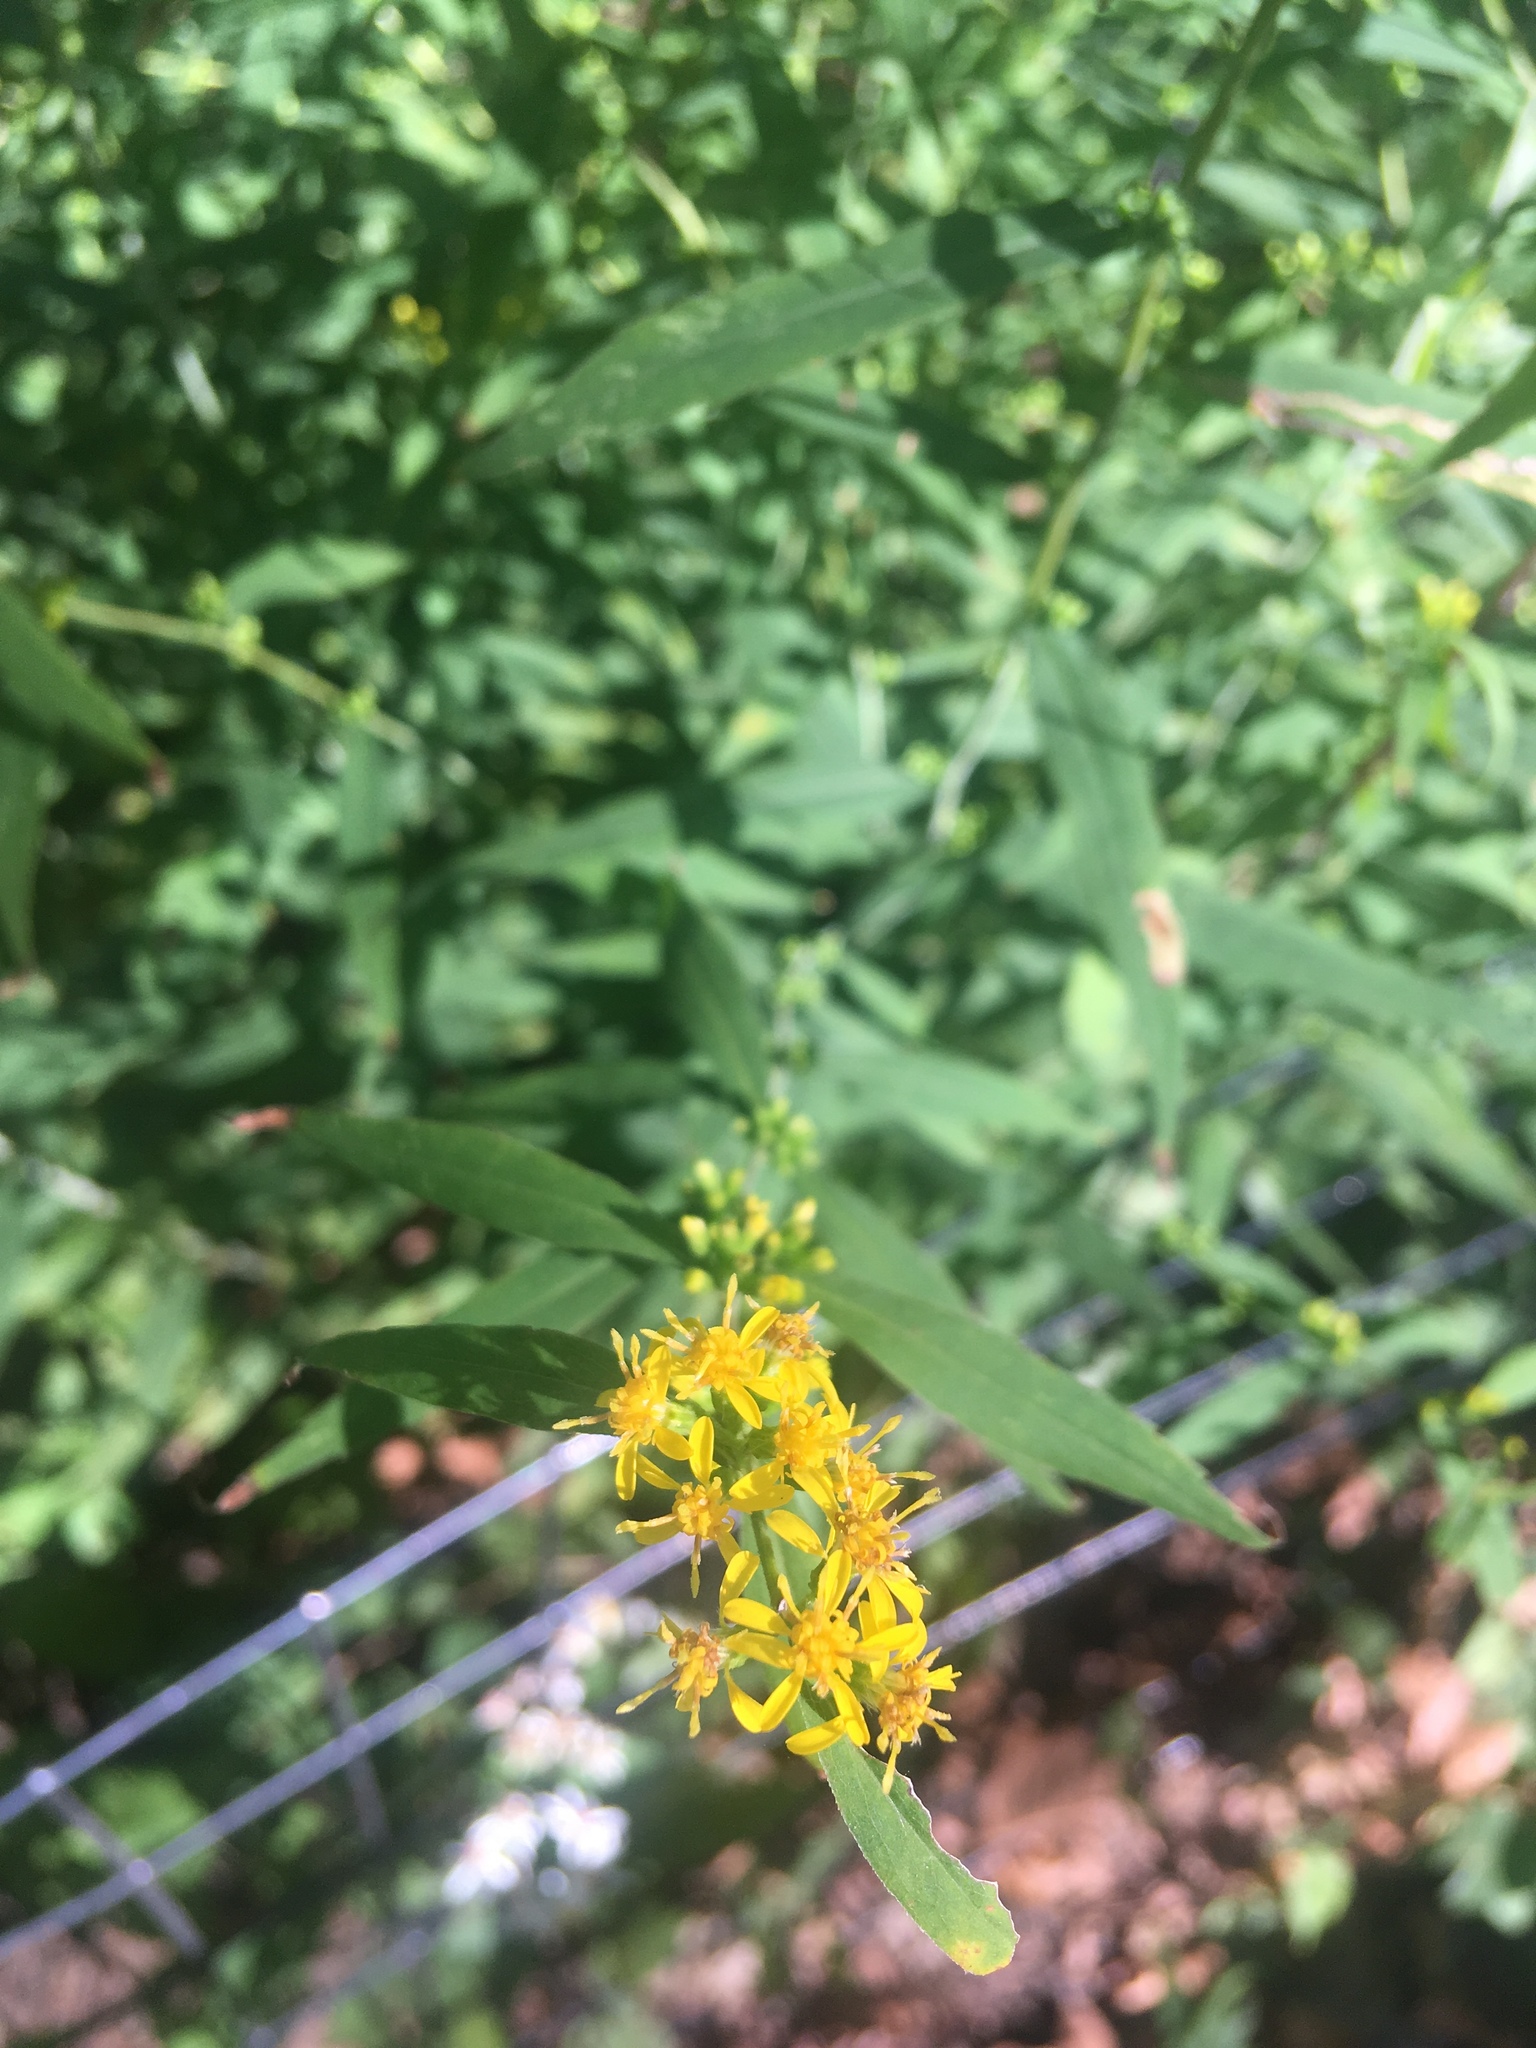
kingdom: Plantae
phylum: Tracheophyta
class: Magnoliopsida
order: Asterales
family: Asteraceae
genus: Solidago
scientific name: Solidago caesia
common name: Woodland goldenrod
